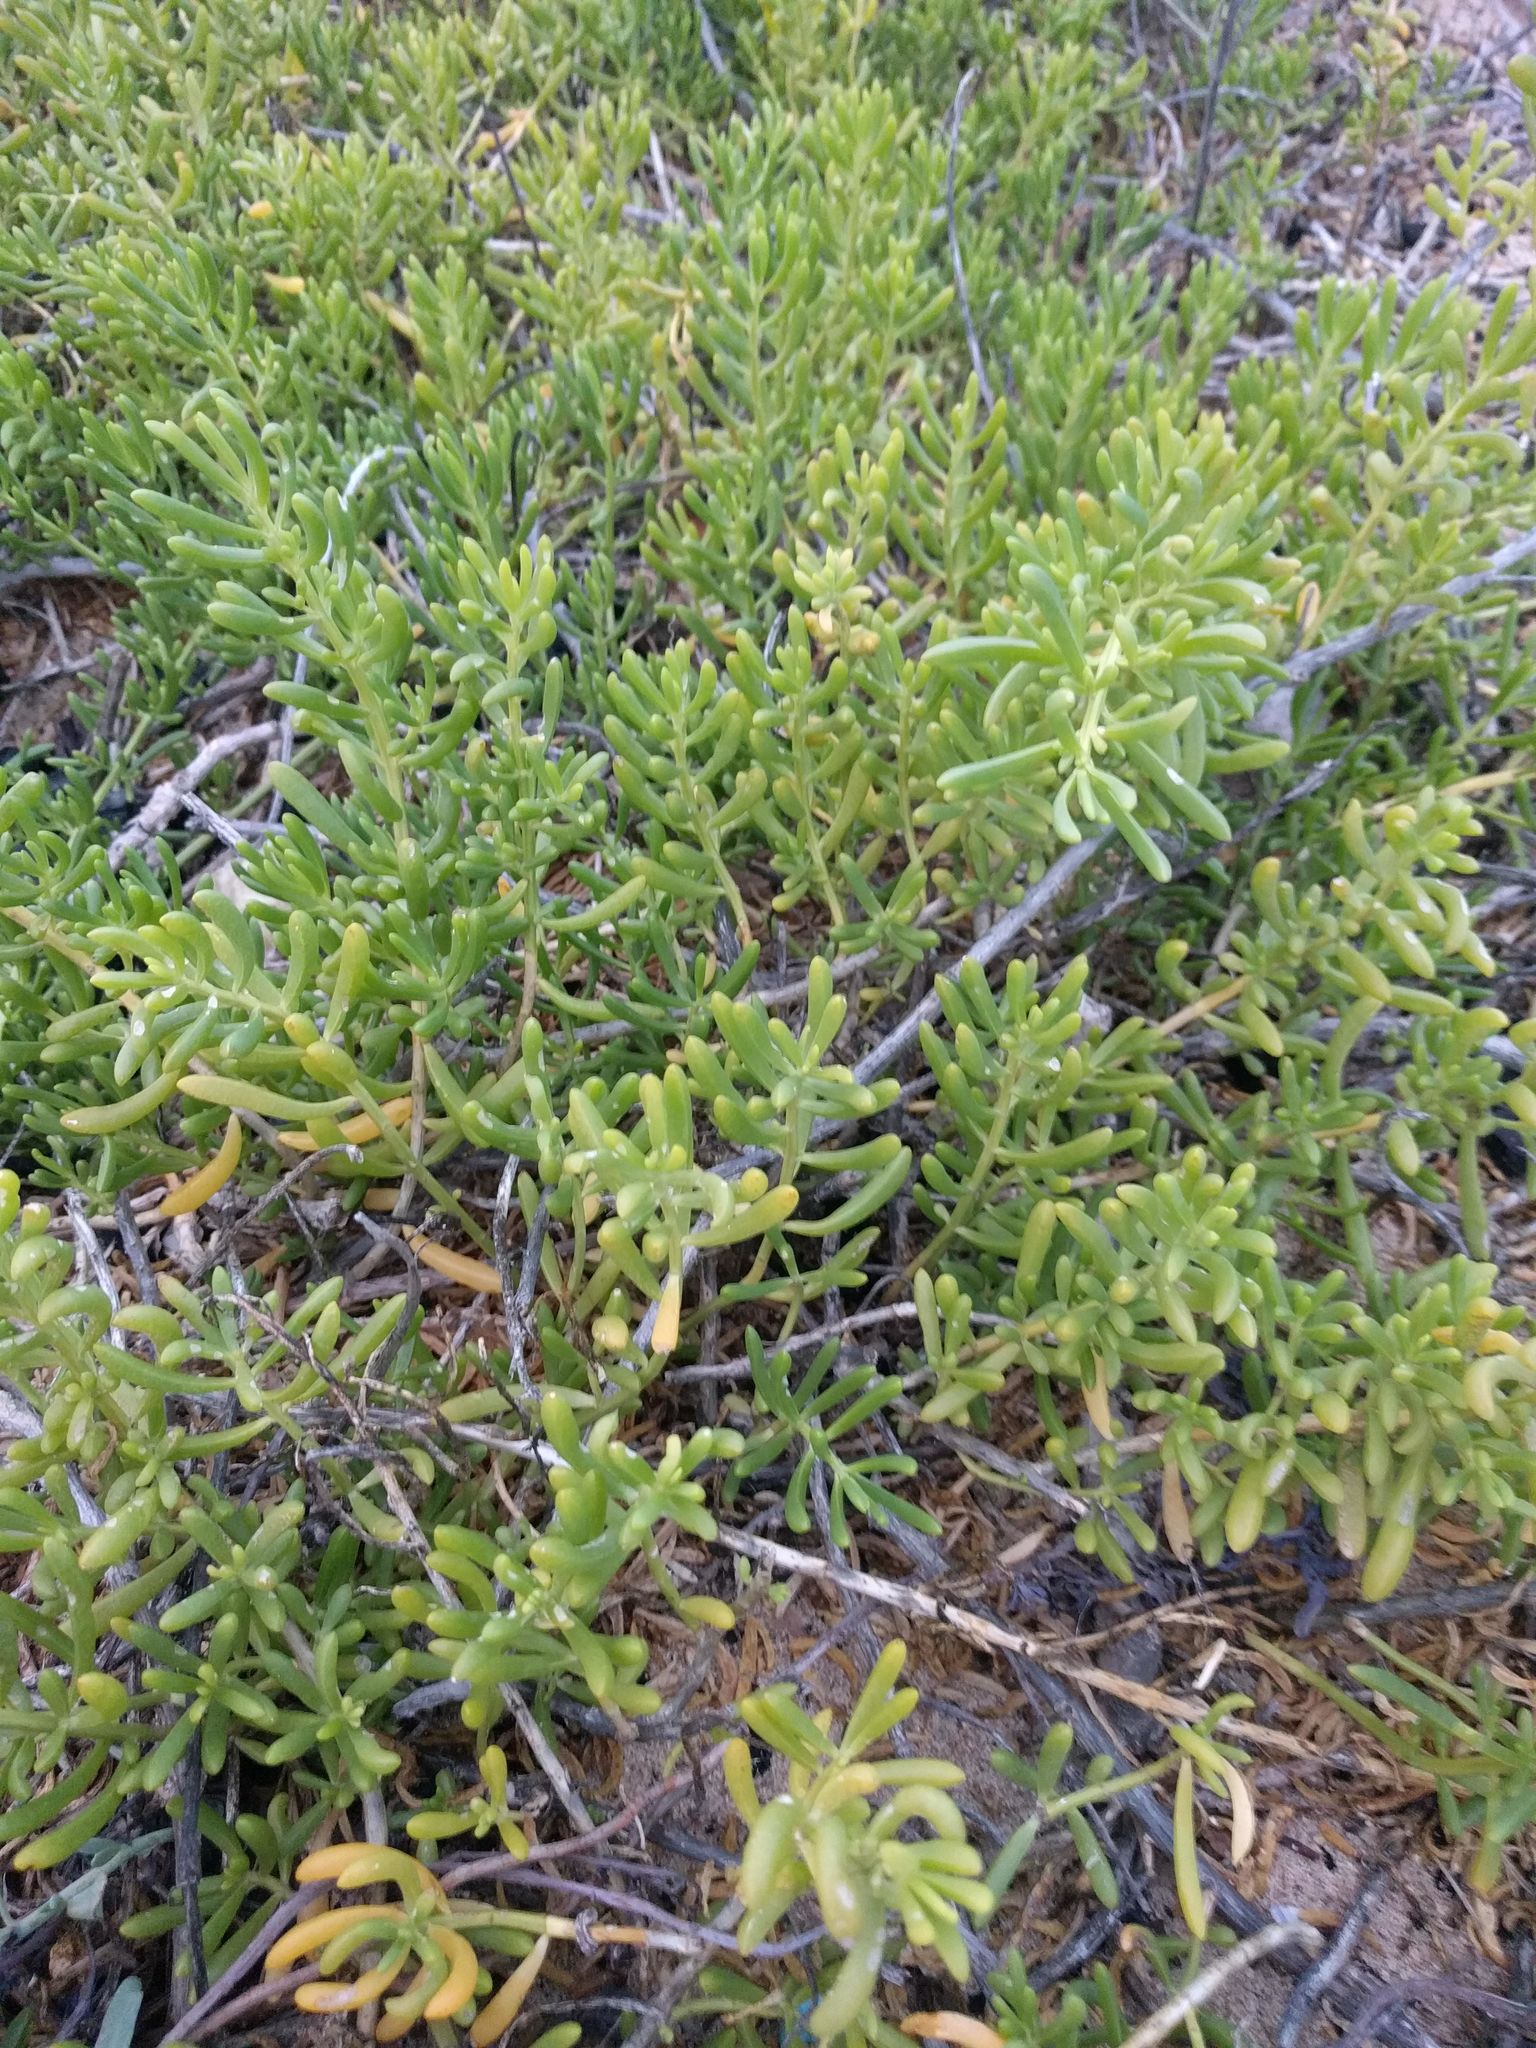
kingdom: Plantae
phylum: Tracheophyta
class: Magnoliopsida
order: Brassicales
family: Bataceae
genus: Batis
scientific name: Batis maritima
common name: Turtleweed
